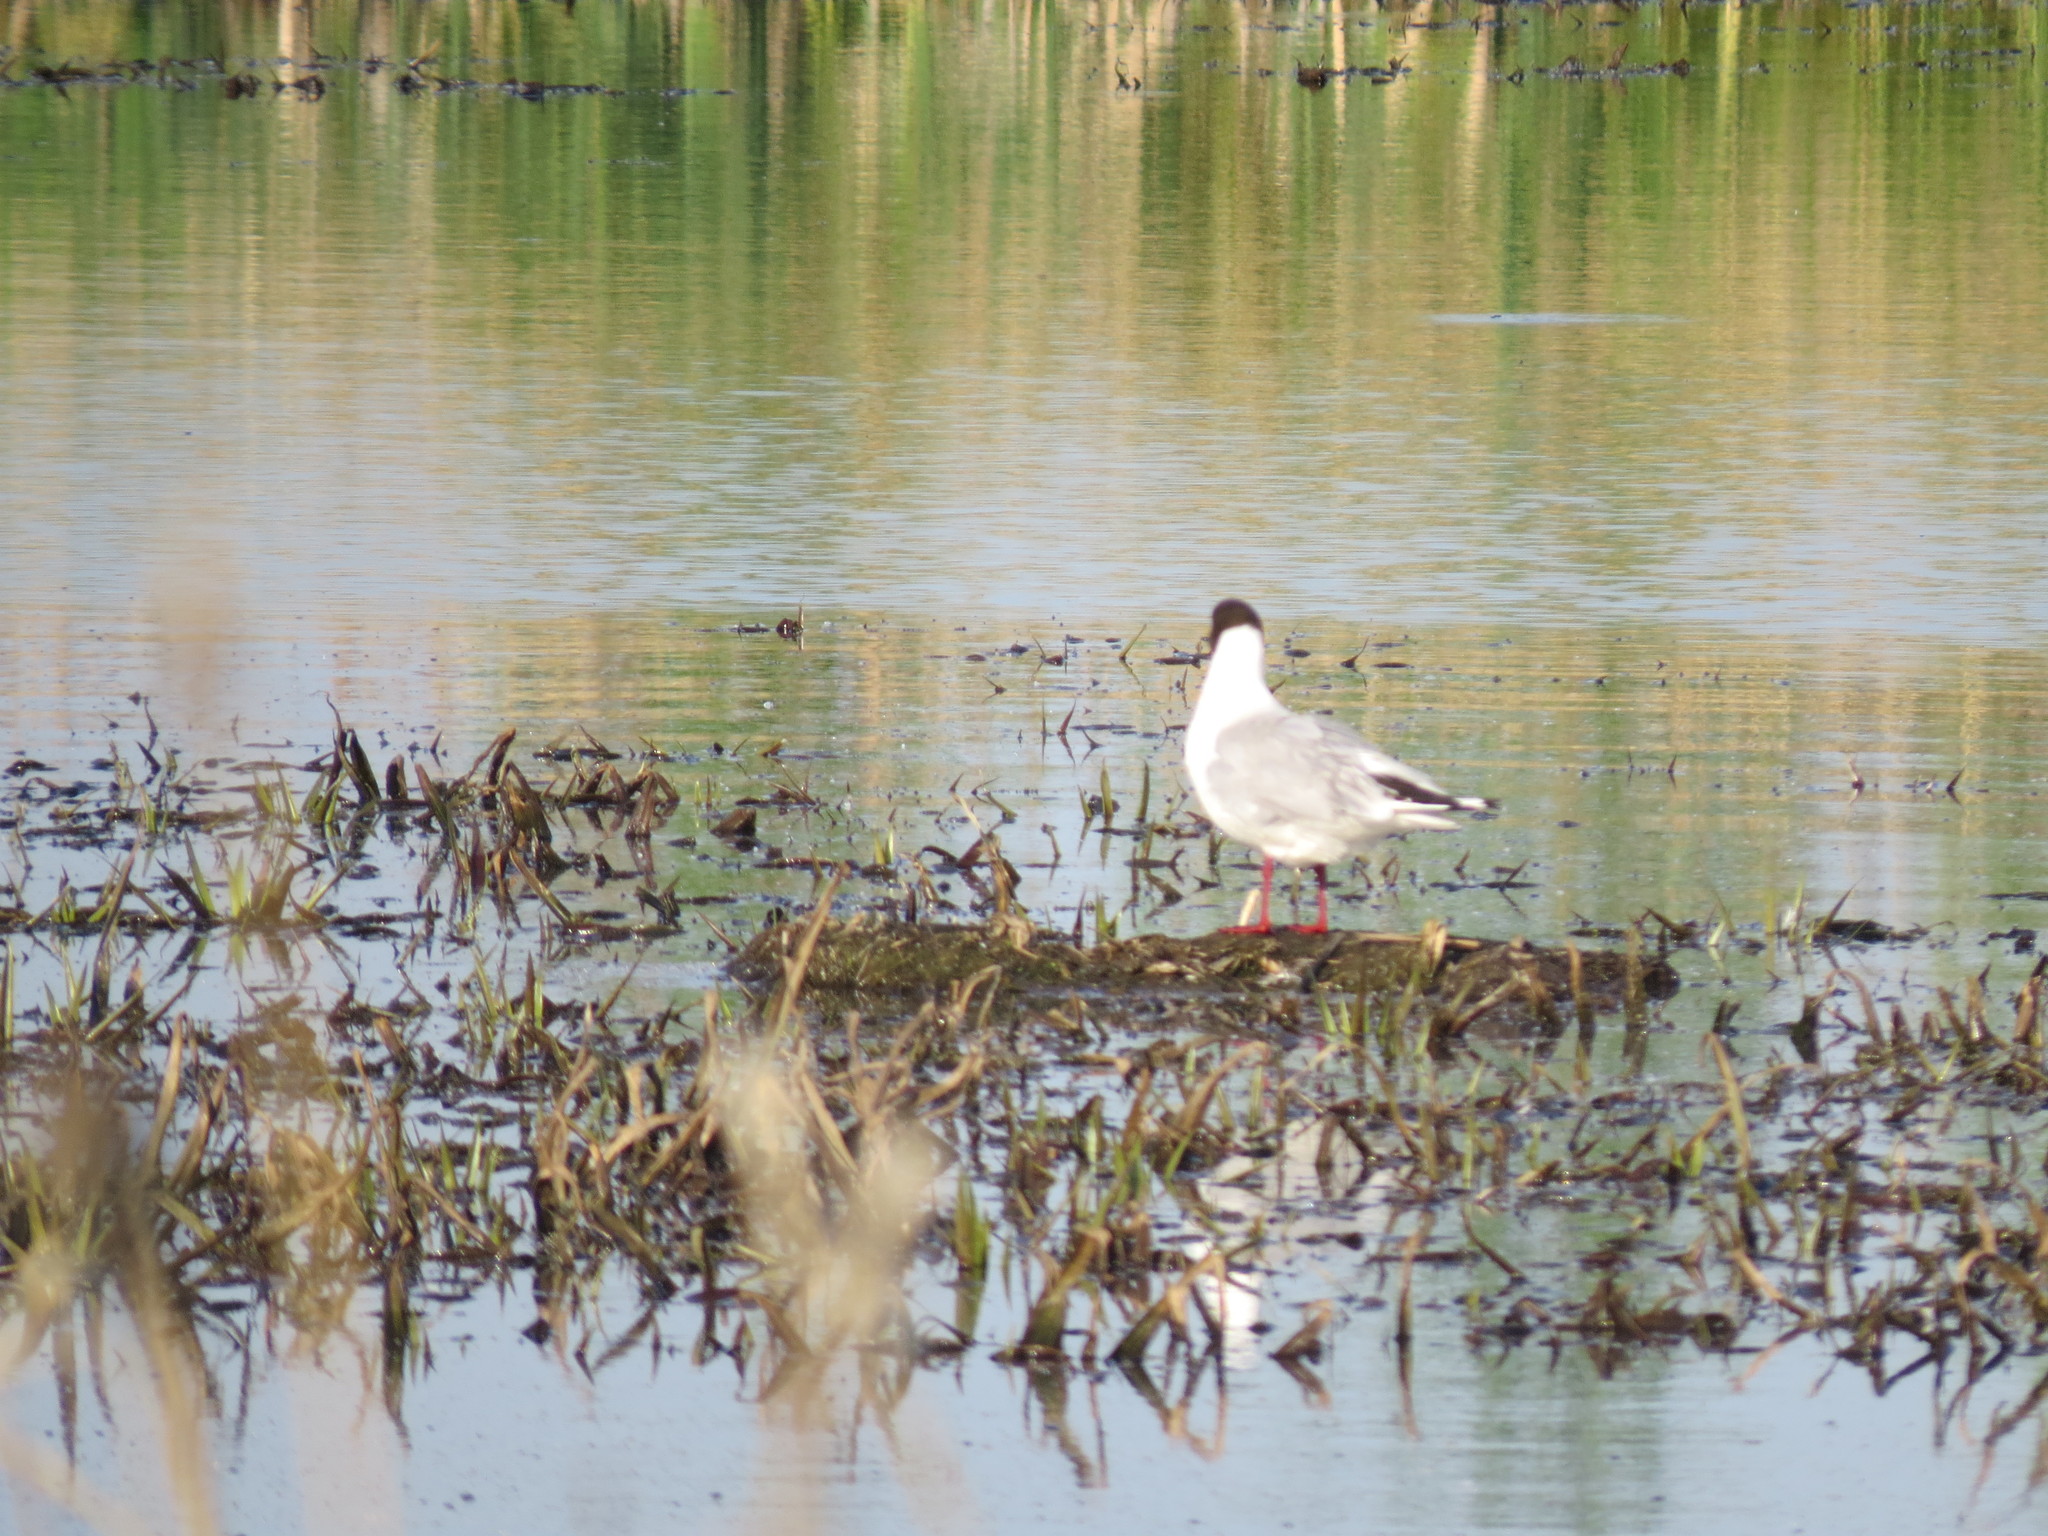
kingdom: Animalia
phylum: Chordata
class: Aves
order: Charadriiformes
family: Laridae
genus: Chroicocephalus
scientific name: Chroicocephalus ridibundus
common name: Black-headed gull
